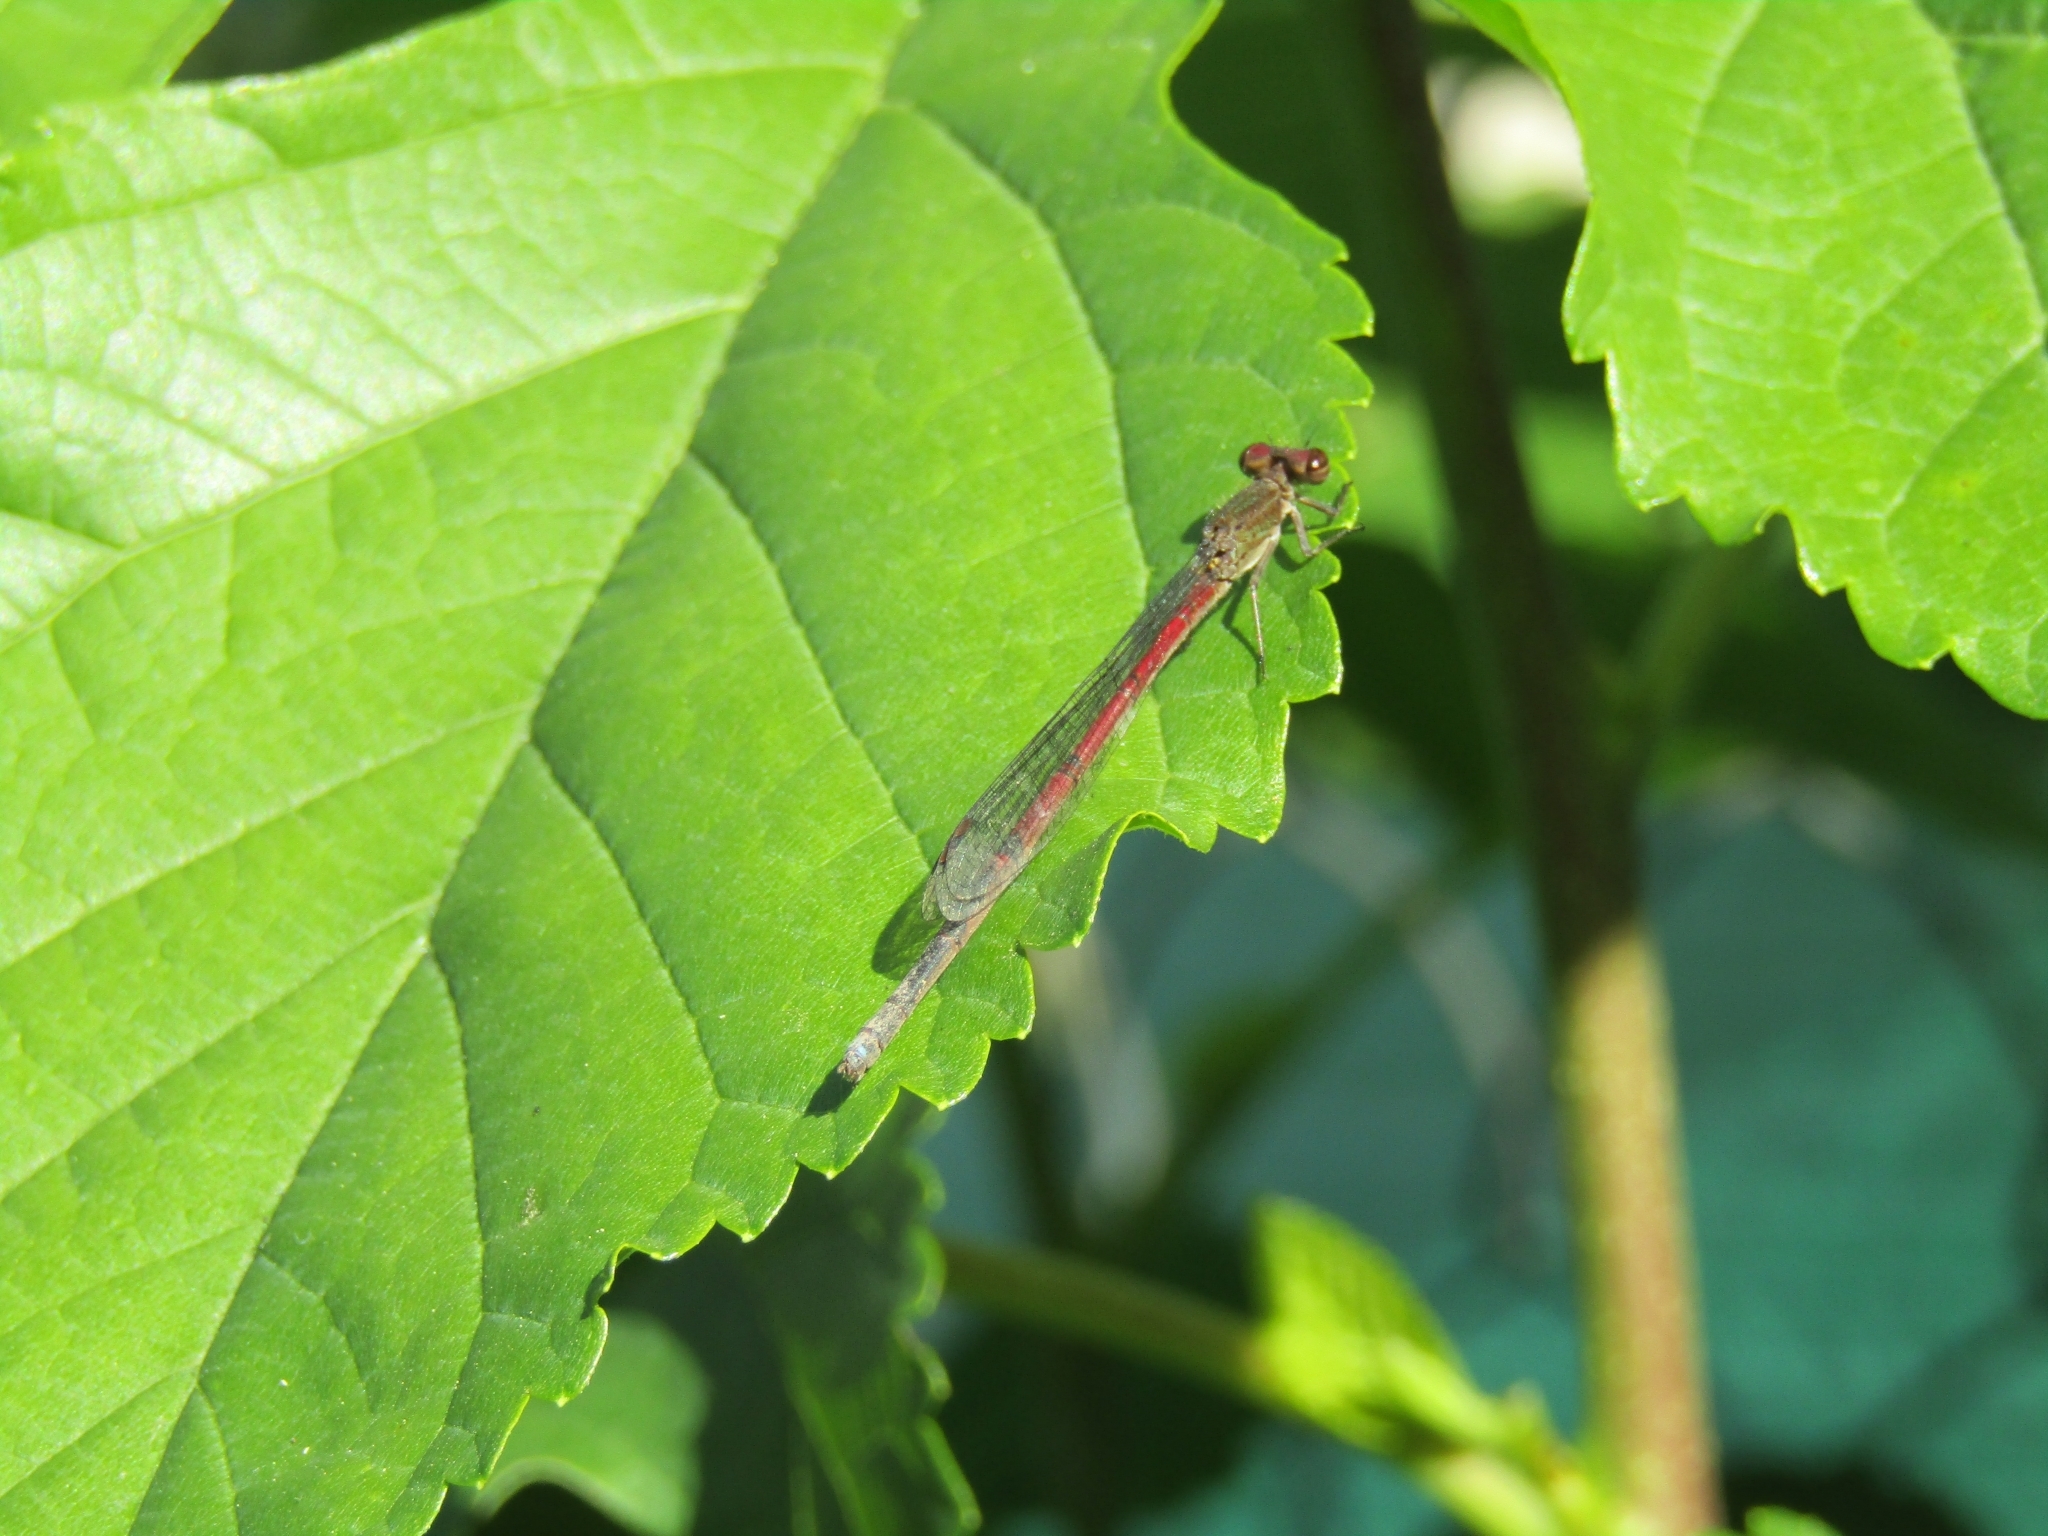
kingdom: Animalia
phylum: Arthropoda
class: Insecta
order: Odonata
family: Coenagrionidae
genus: Oxyagrion
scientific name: Oxyagrion terminale
